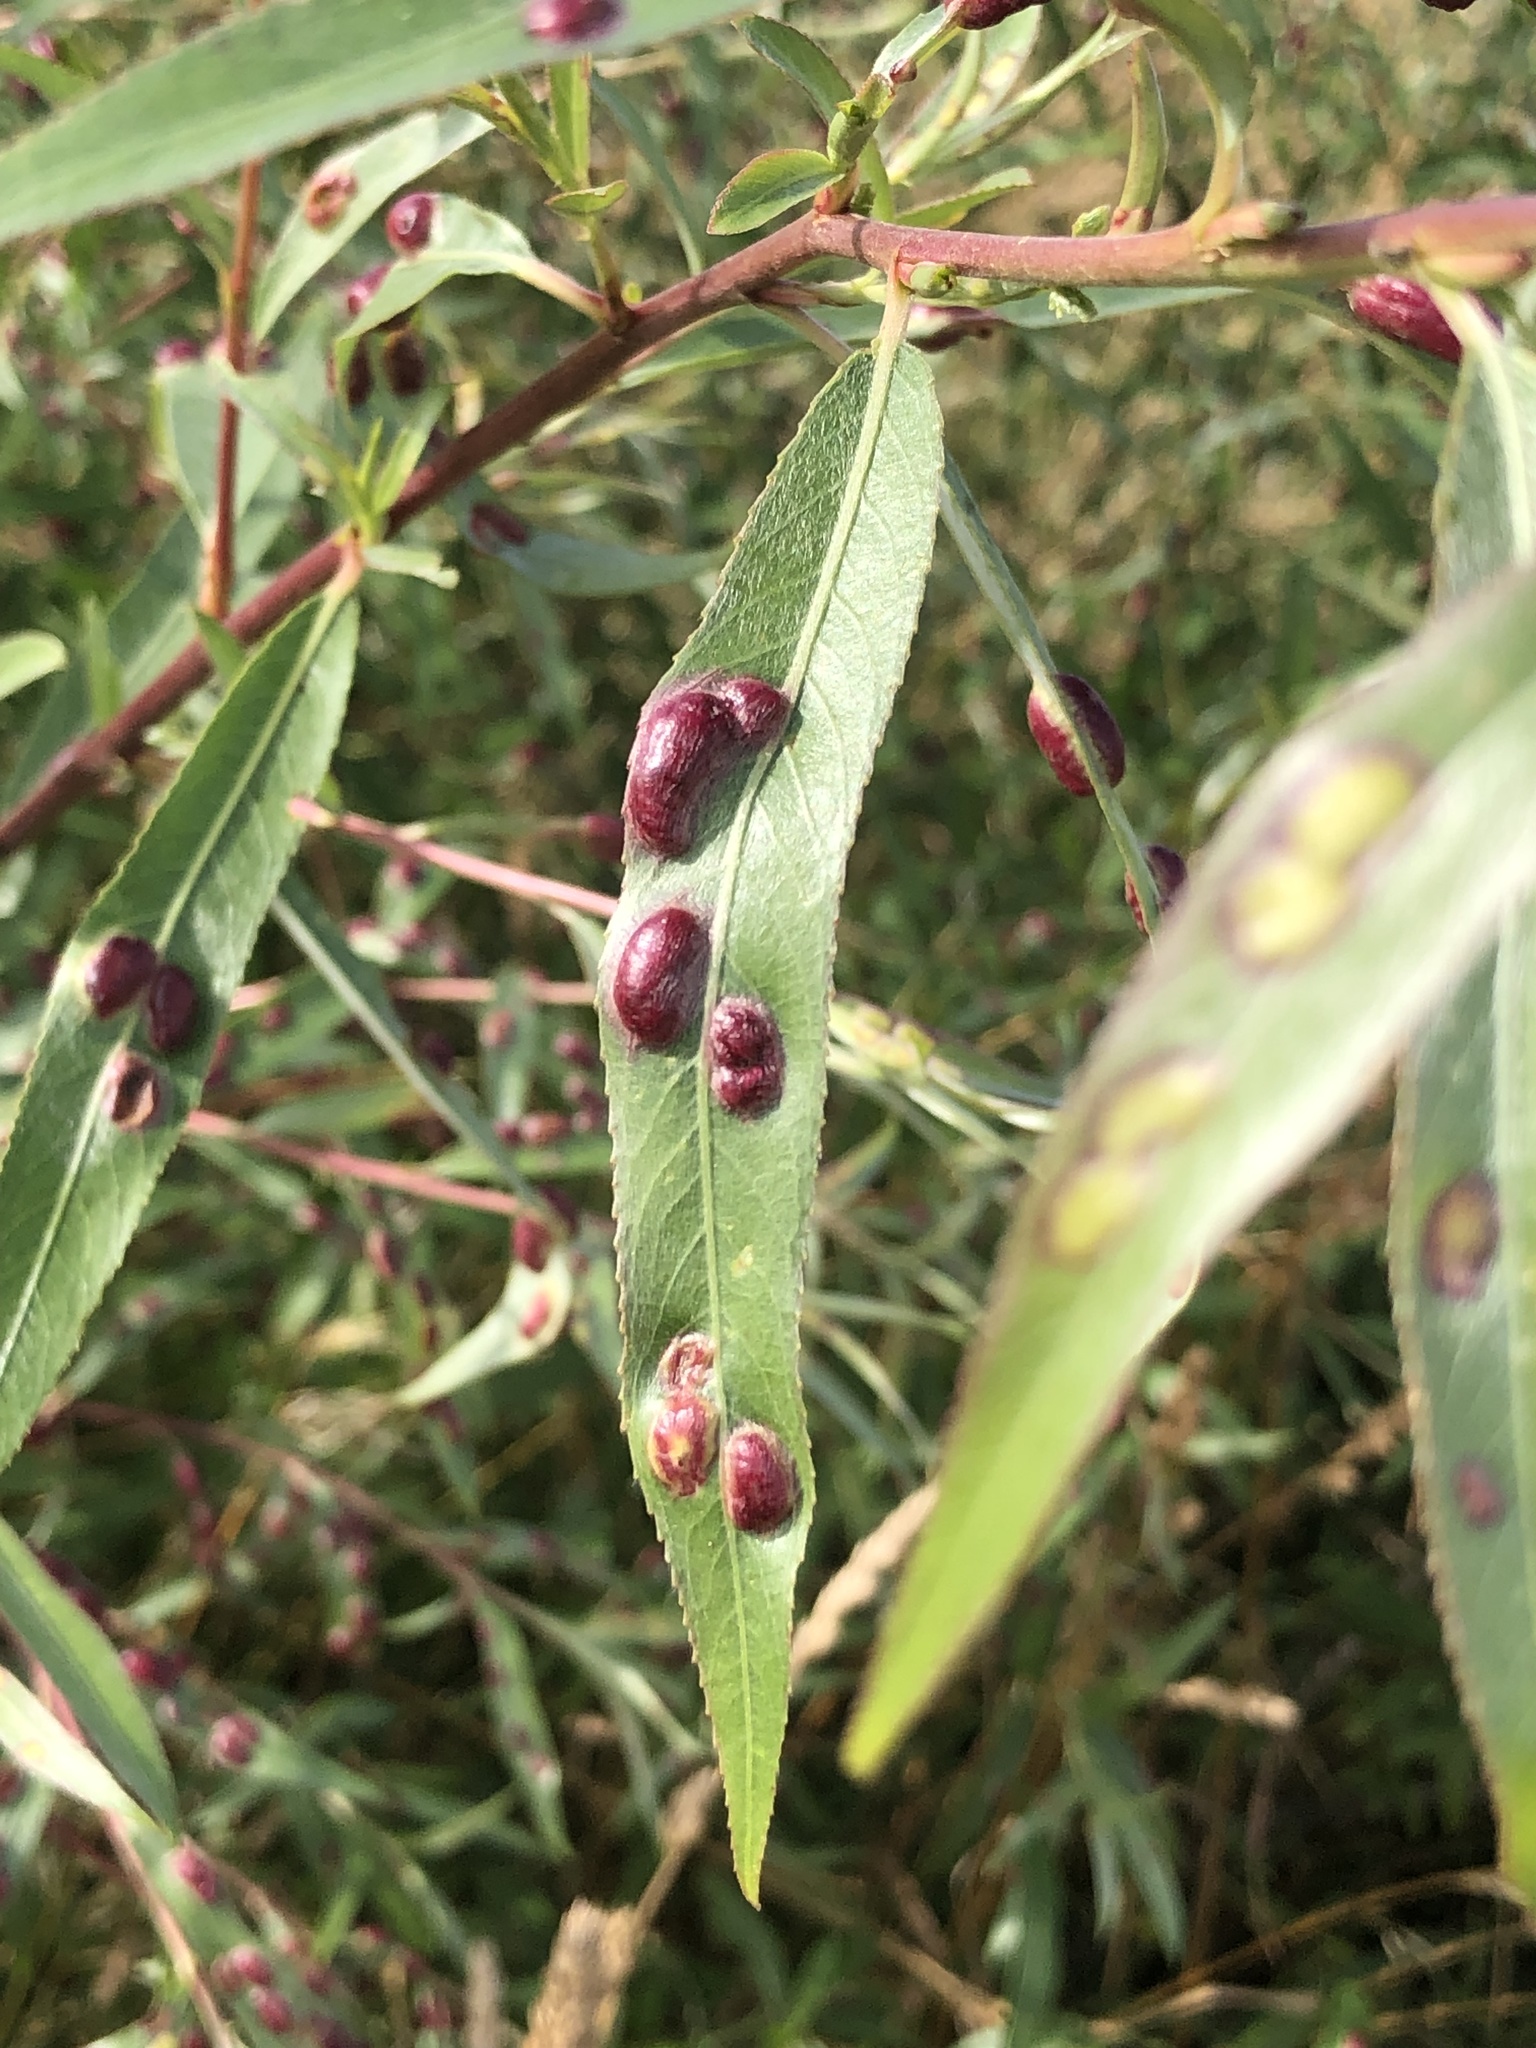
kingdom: Animalia
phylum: Arthropoda
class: Insecta
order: Hymenoptera
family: Tenthredinidae
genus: Pontania
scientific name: Pontania proxima
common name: Common sawfly
